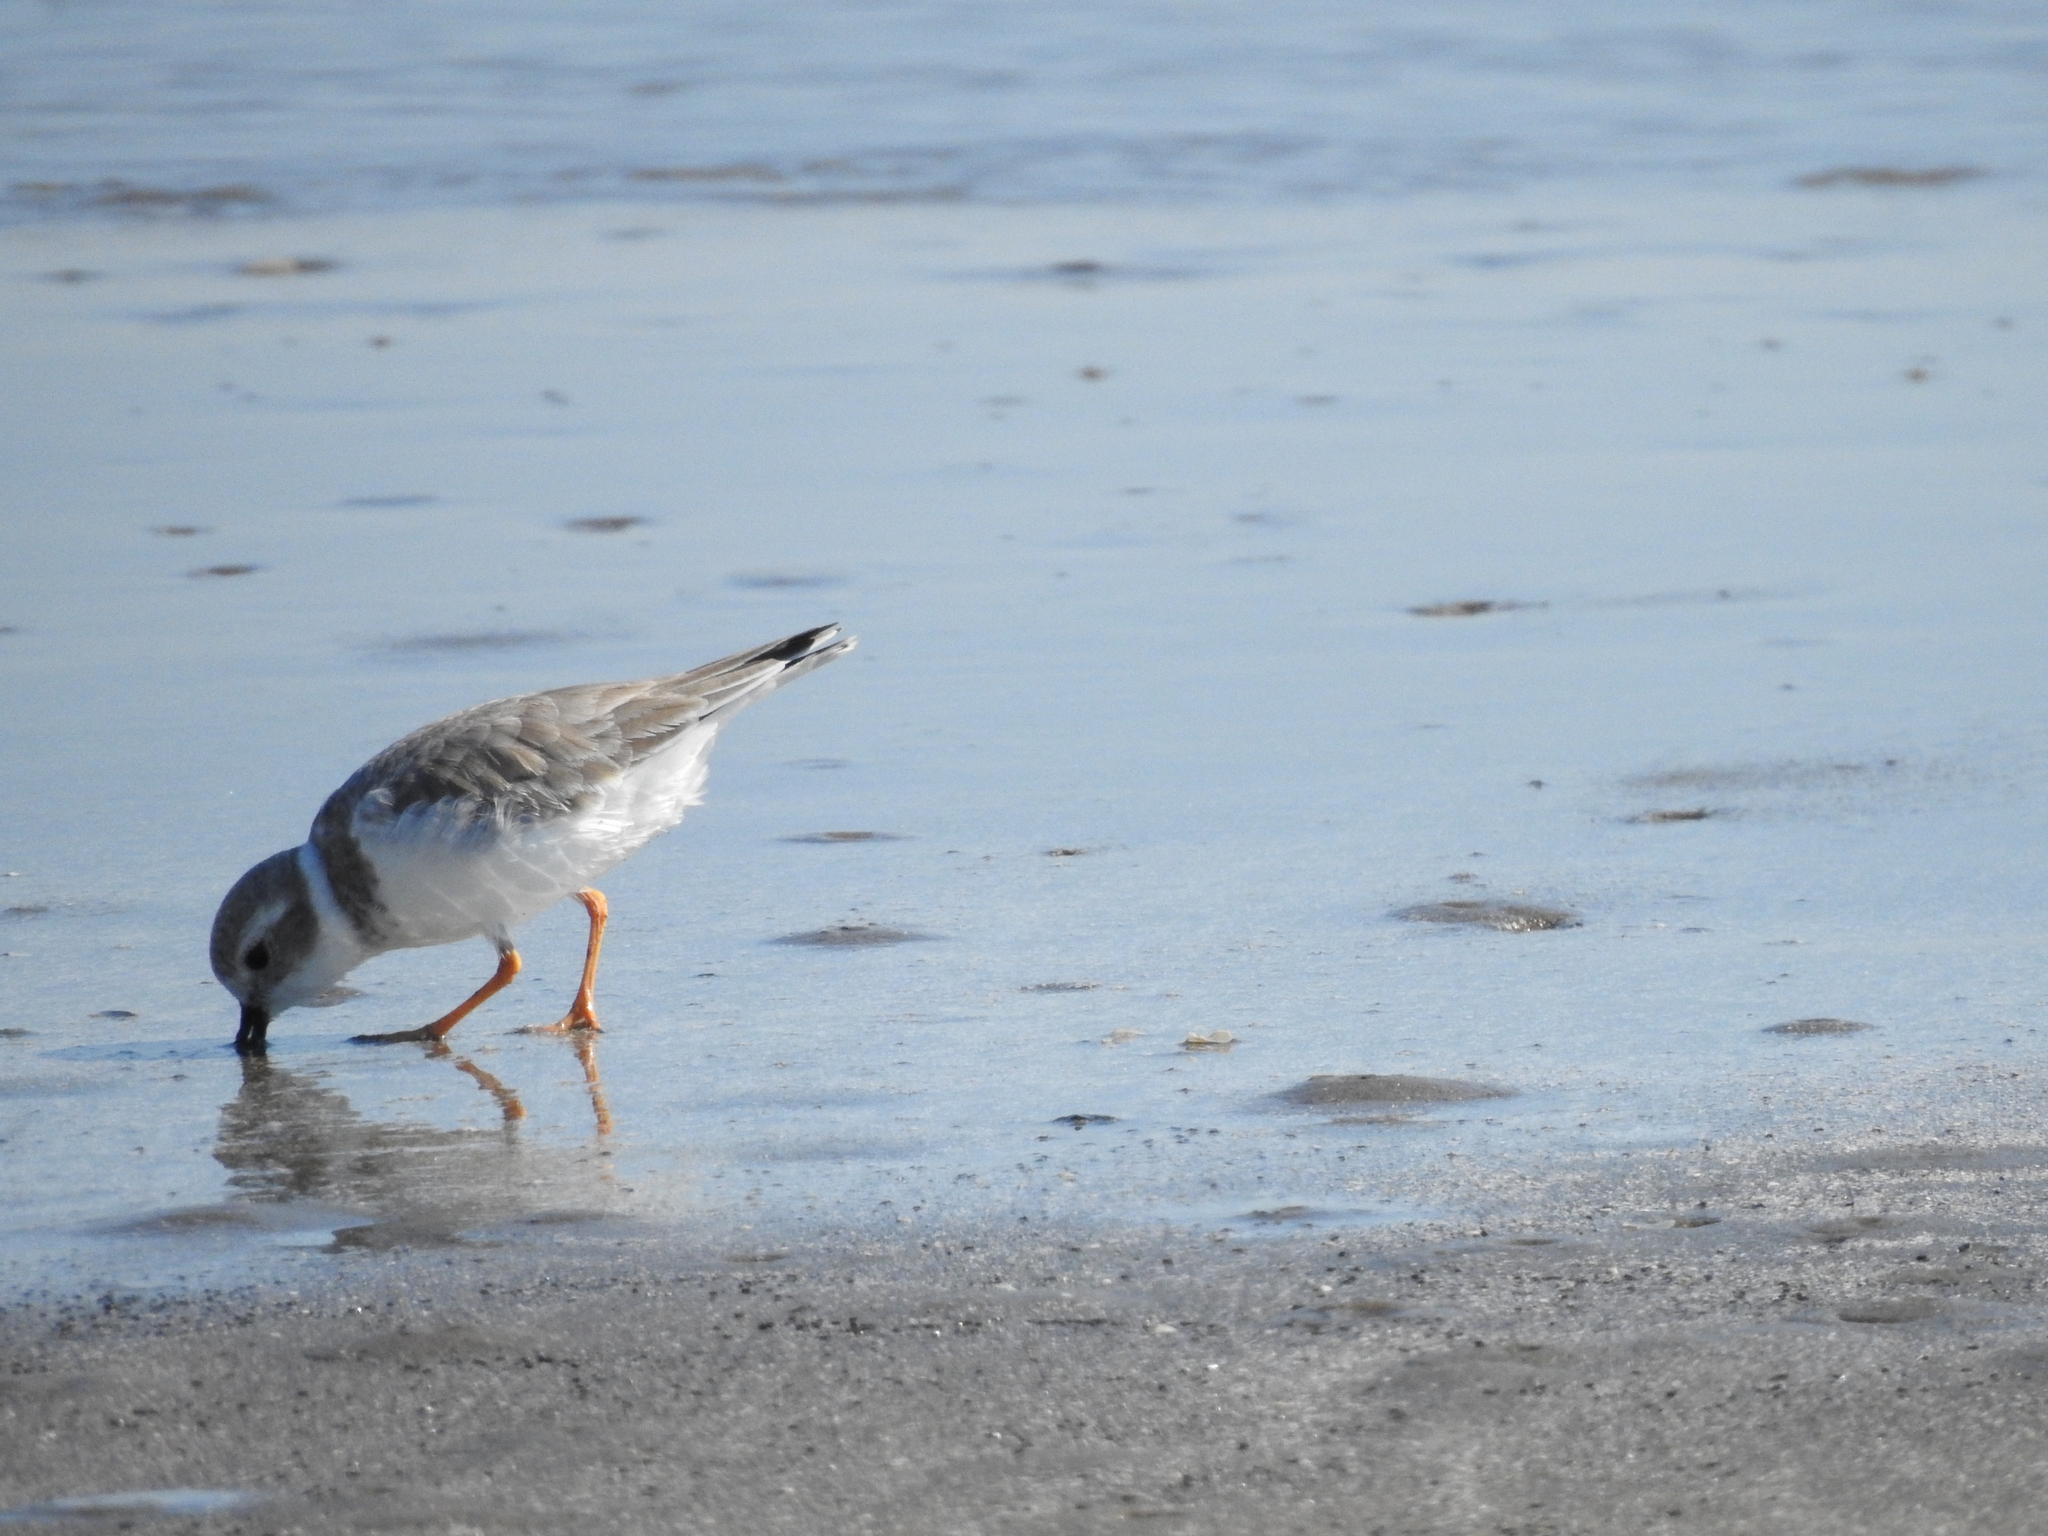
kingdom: Animalia
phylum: Chordata
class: Aves
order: Charadriiformes
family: Charadriidae
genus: Charadrius
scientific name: Charadrius melodus
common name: Piping plover
